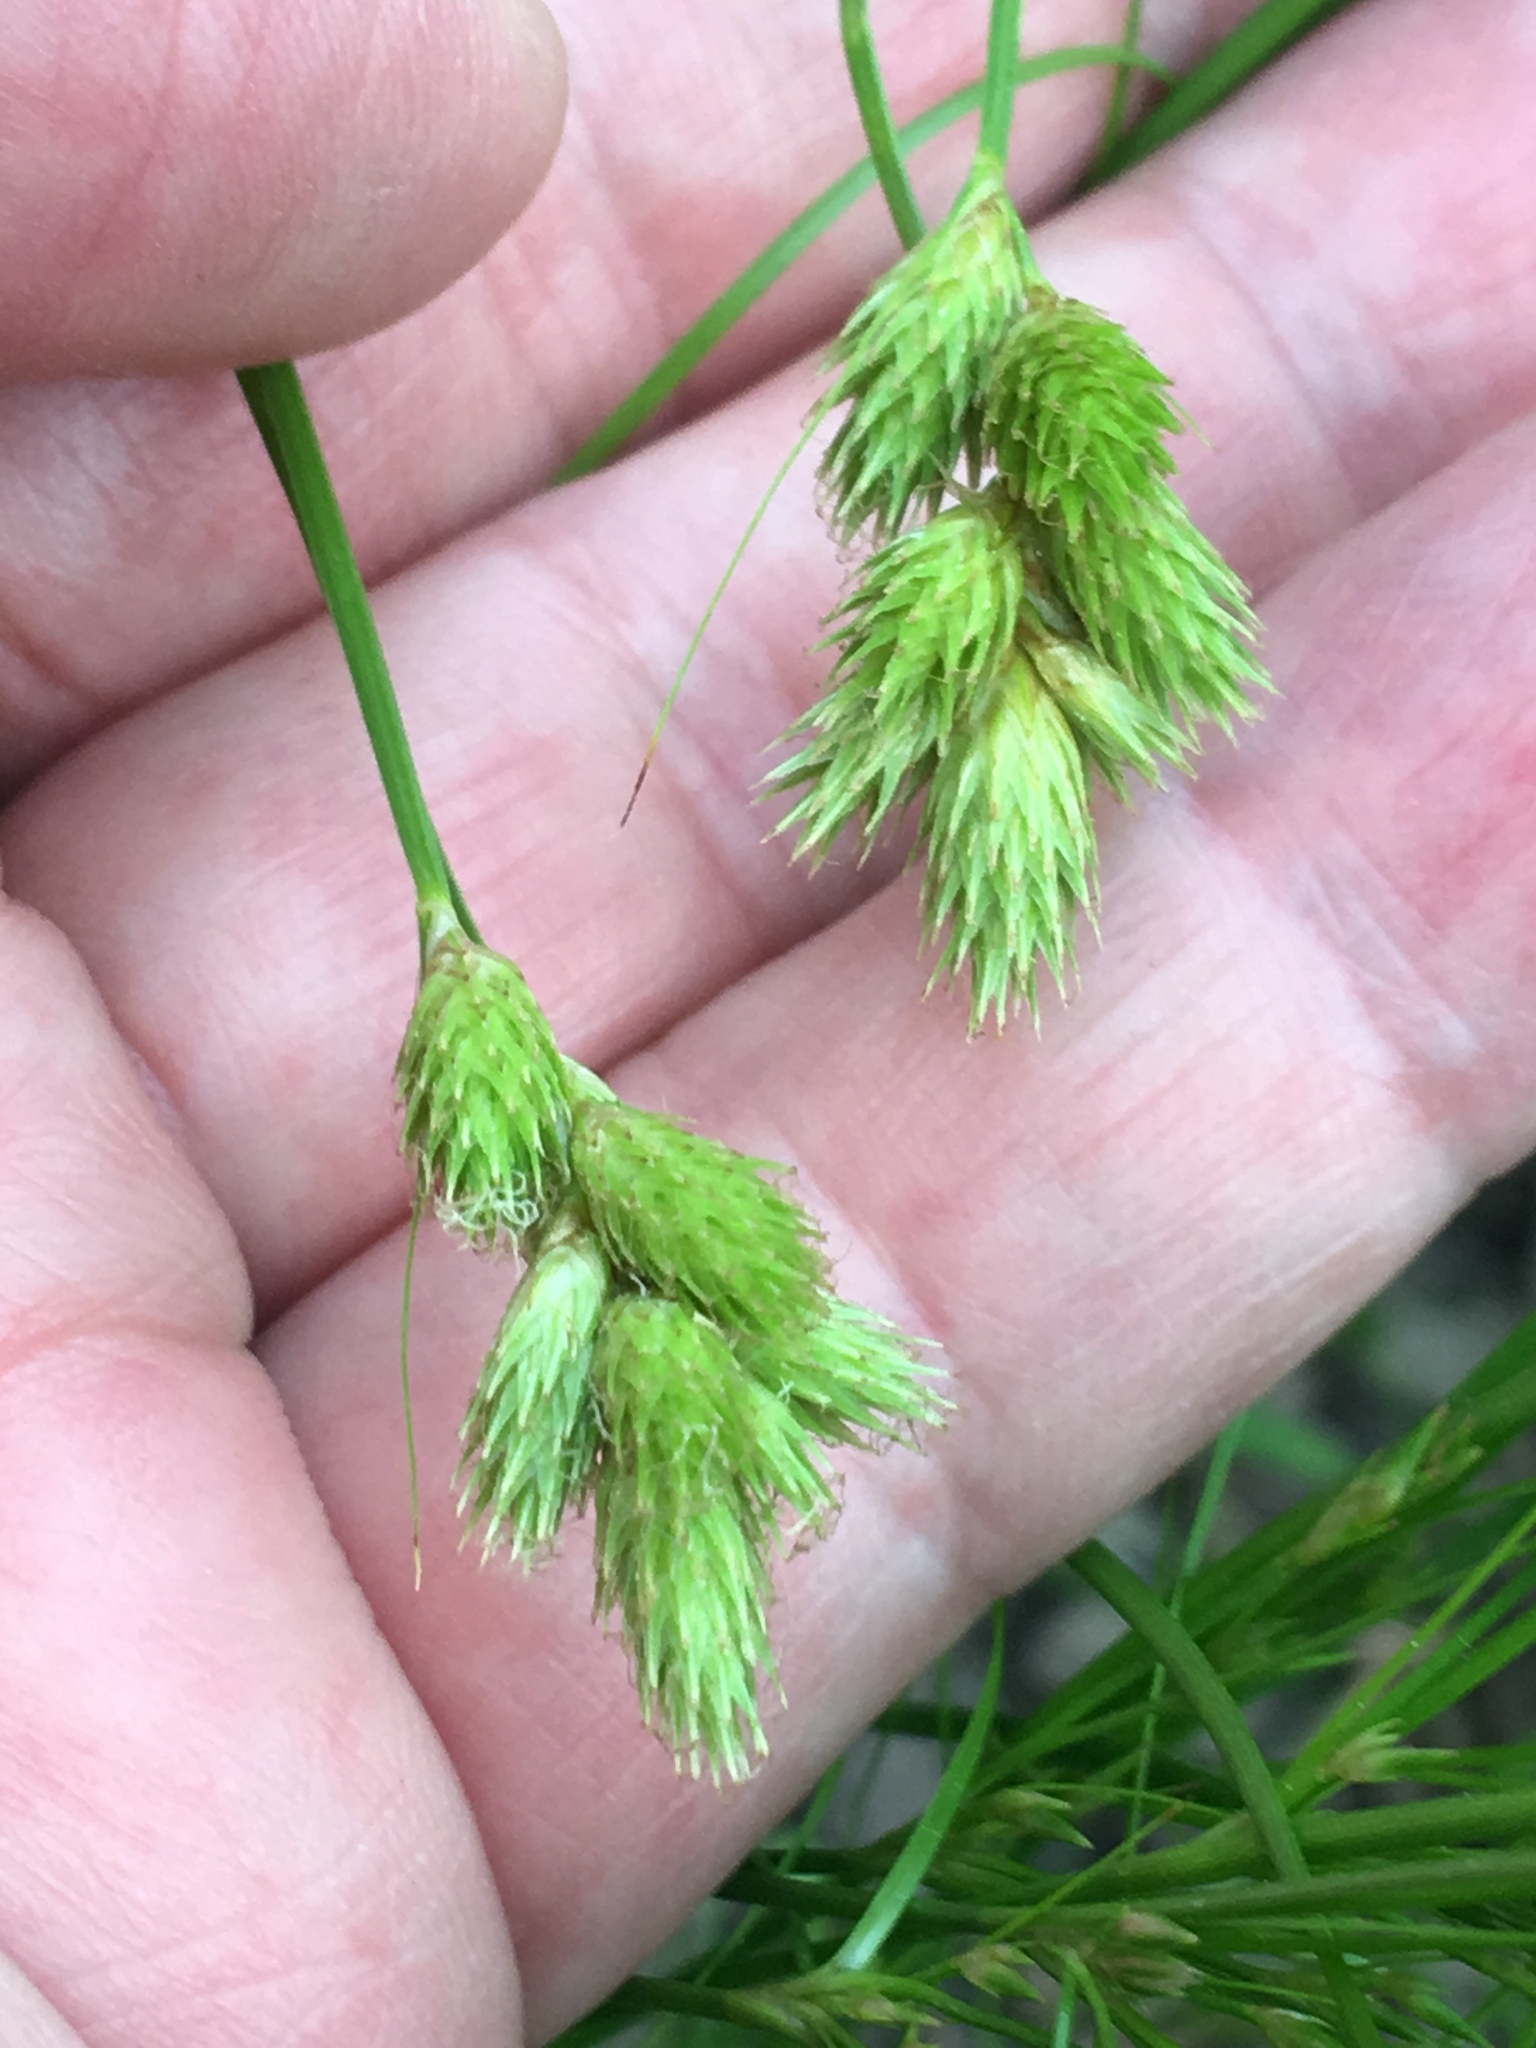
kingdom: Plantae
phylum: Tracheophyta
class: Liliopsida
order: Poales
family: Cyperaceae
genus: Carex
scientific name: Carex scoparia
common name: Broom sedge
